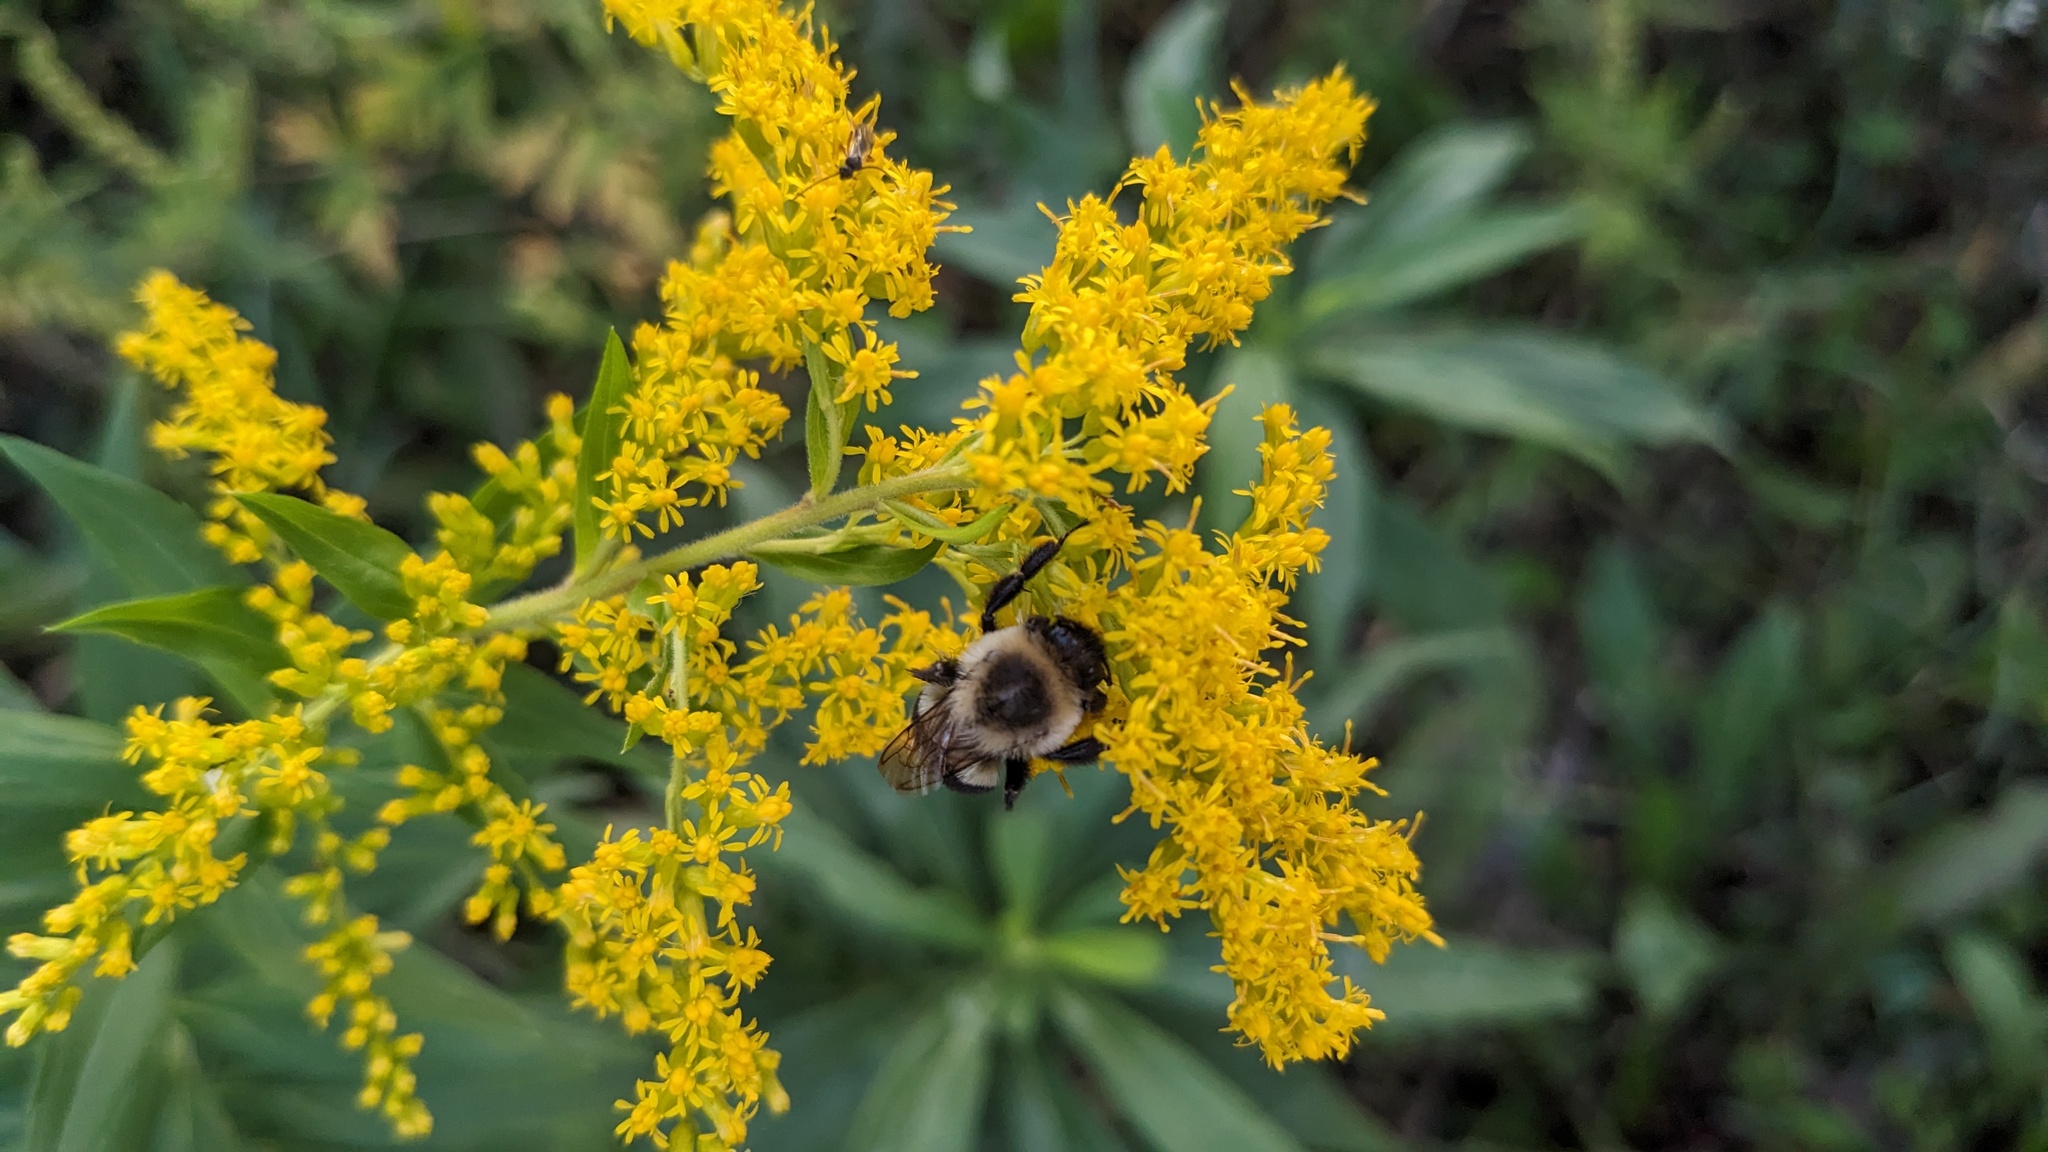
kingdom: Animalia
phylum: Arthropoda
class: Insecta
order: Hymenoptera
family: Apidae
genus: Bombus
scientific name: Bombus impatiens
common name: Common eastern bumble bee
